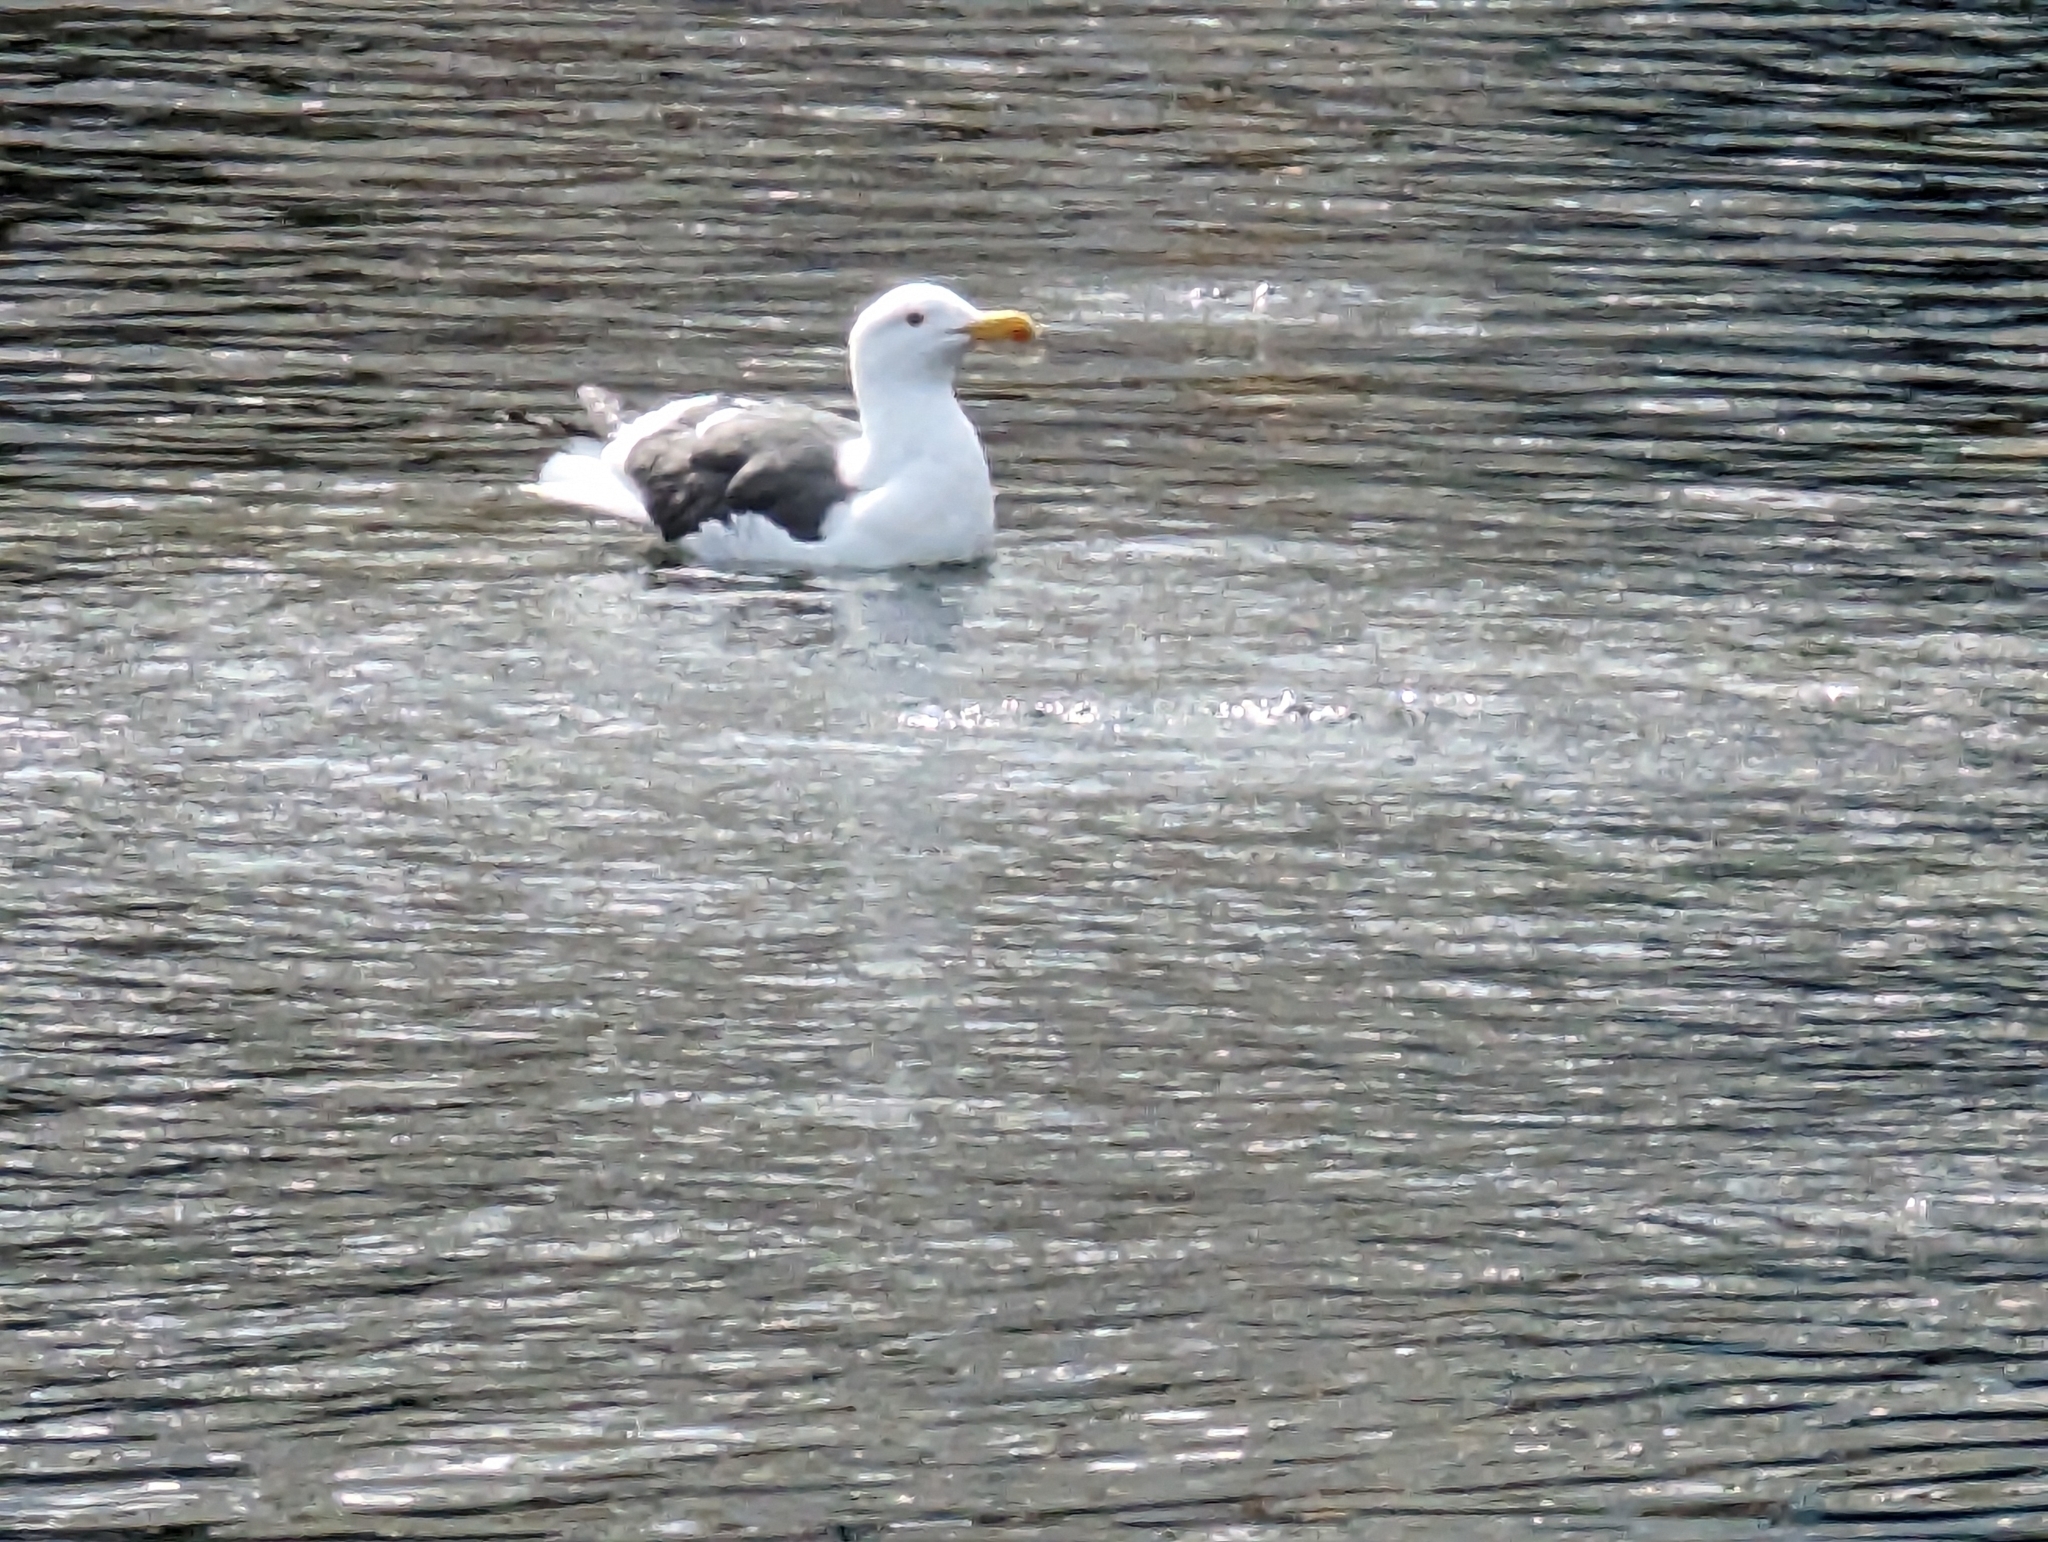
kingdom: Animalia
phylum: Chordata
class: Aves
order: Charadriiformes
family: Laridae
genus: Larus
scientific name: Larus occidentalis
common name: Western gull
